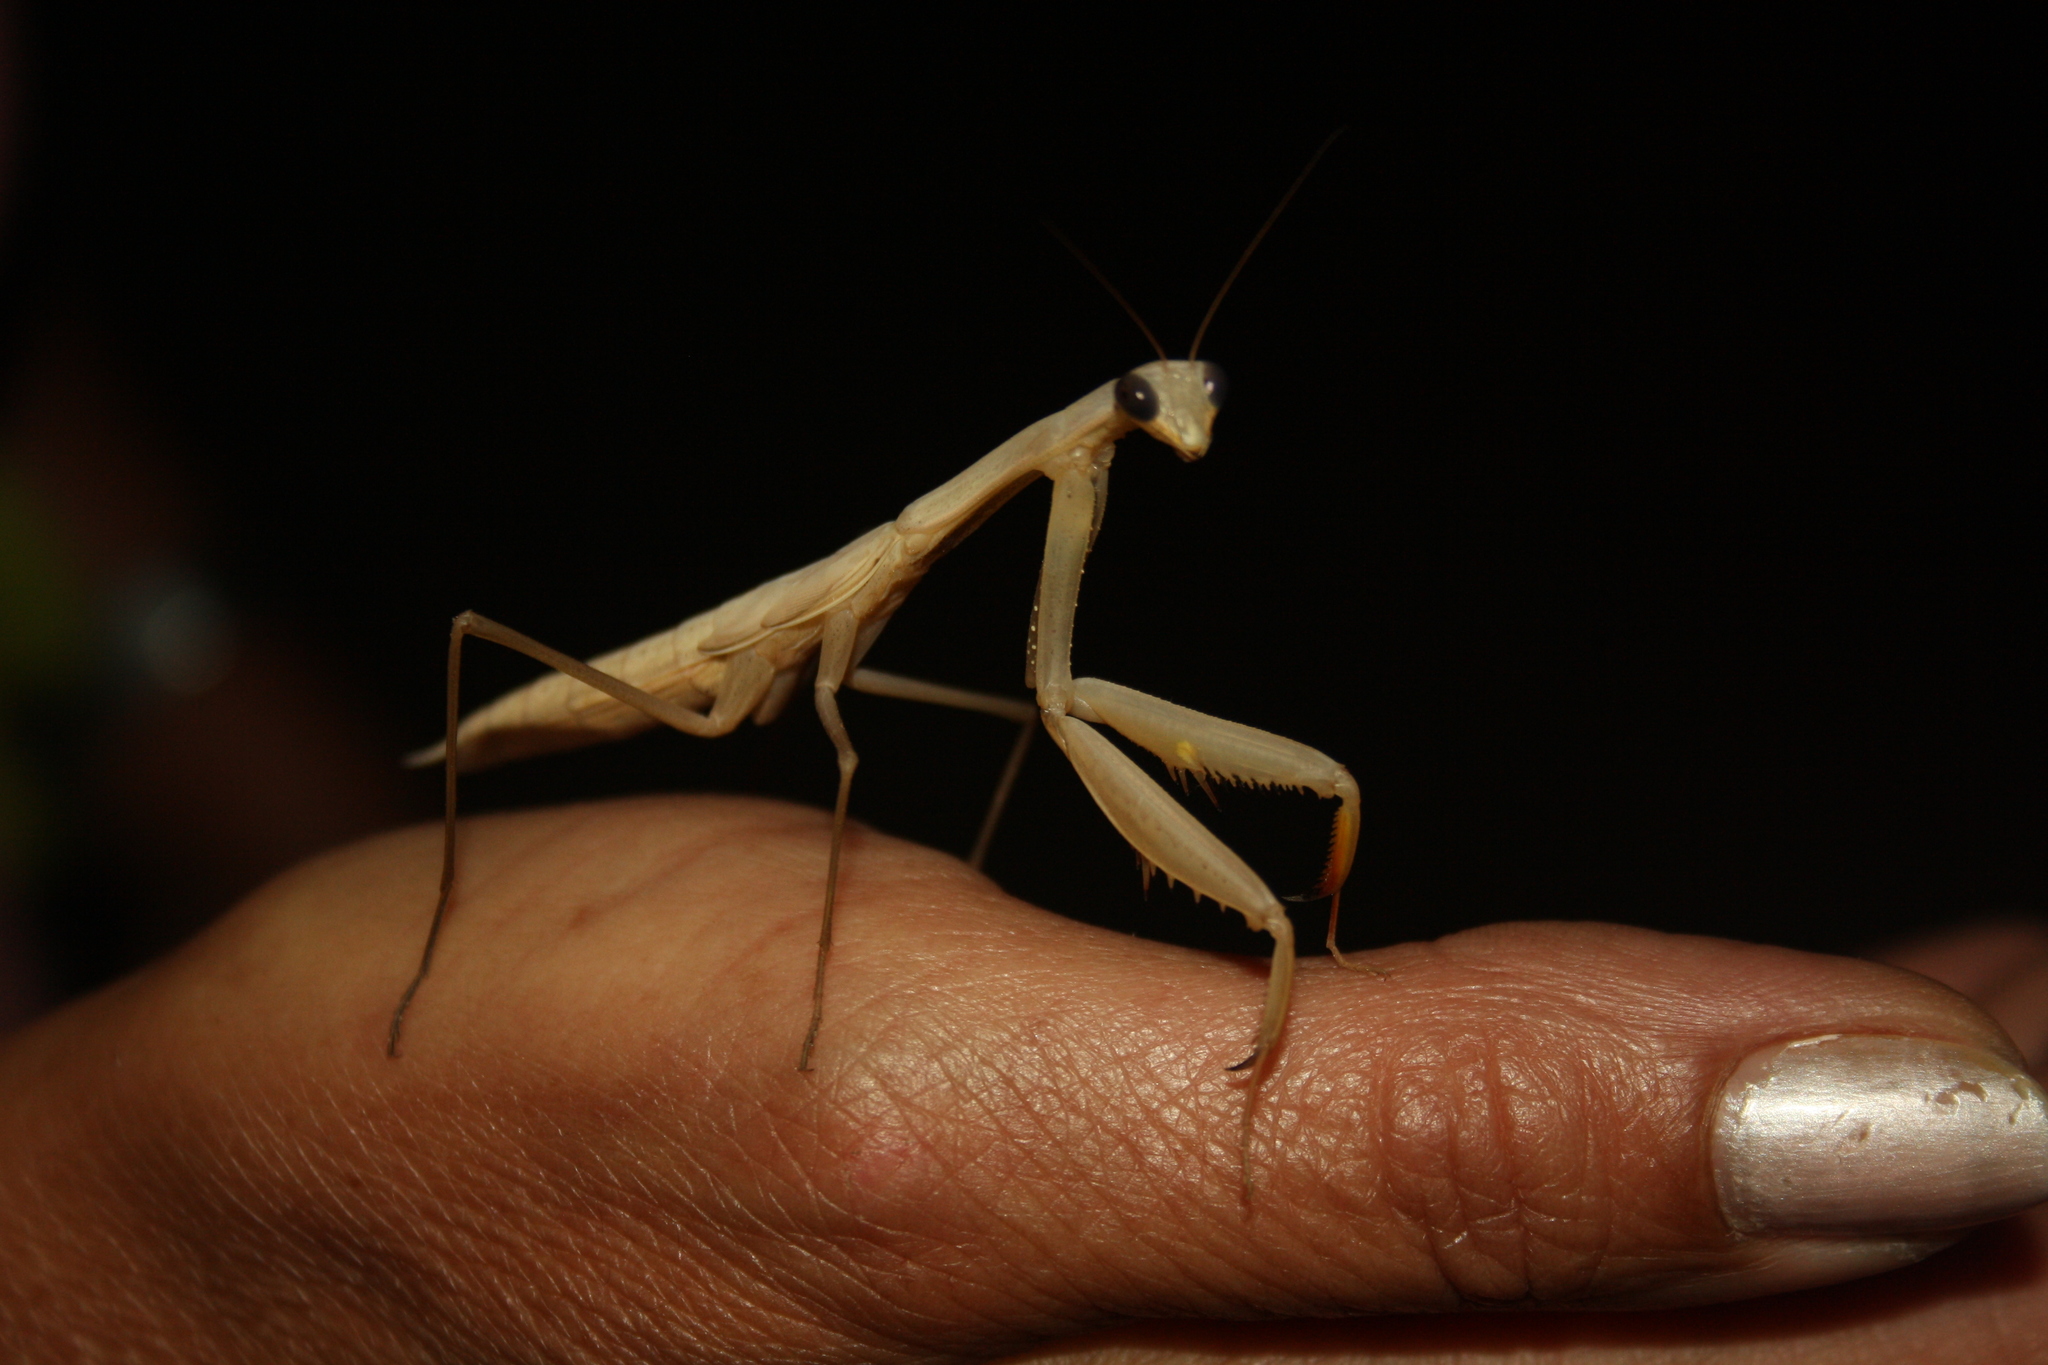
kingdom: Animalia
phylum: Arthropoda
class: Insecta
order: Mantodea
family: Mantidae
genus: Mantis
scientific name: Mantis religiosa
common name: Praying mantis
